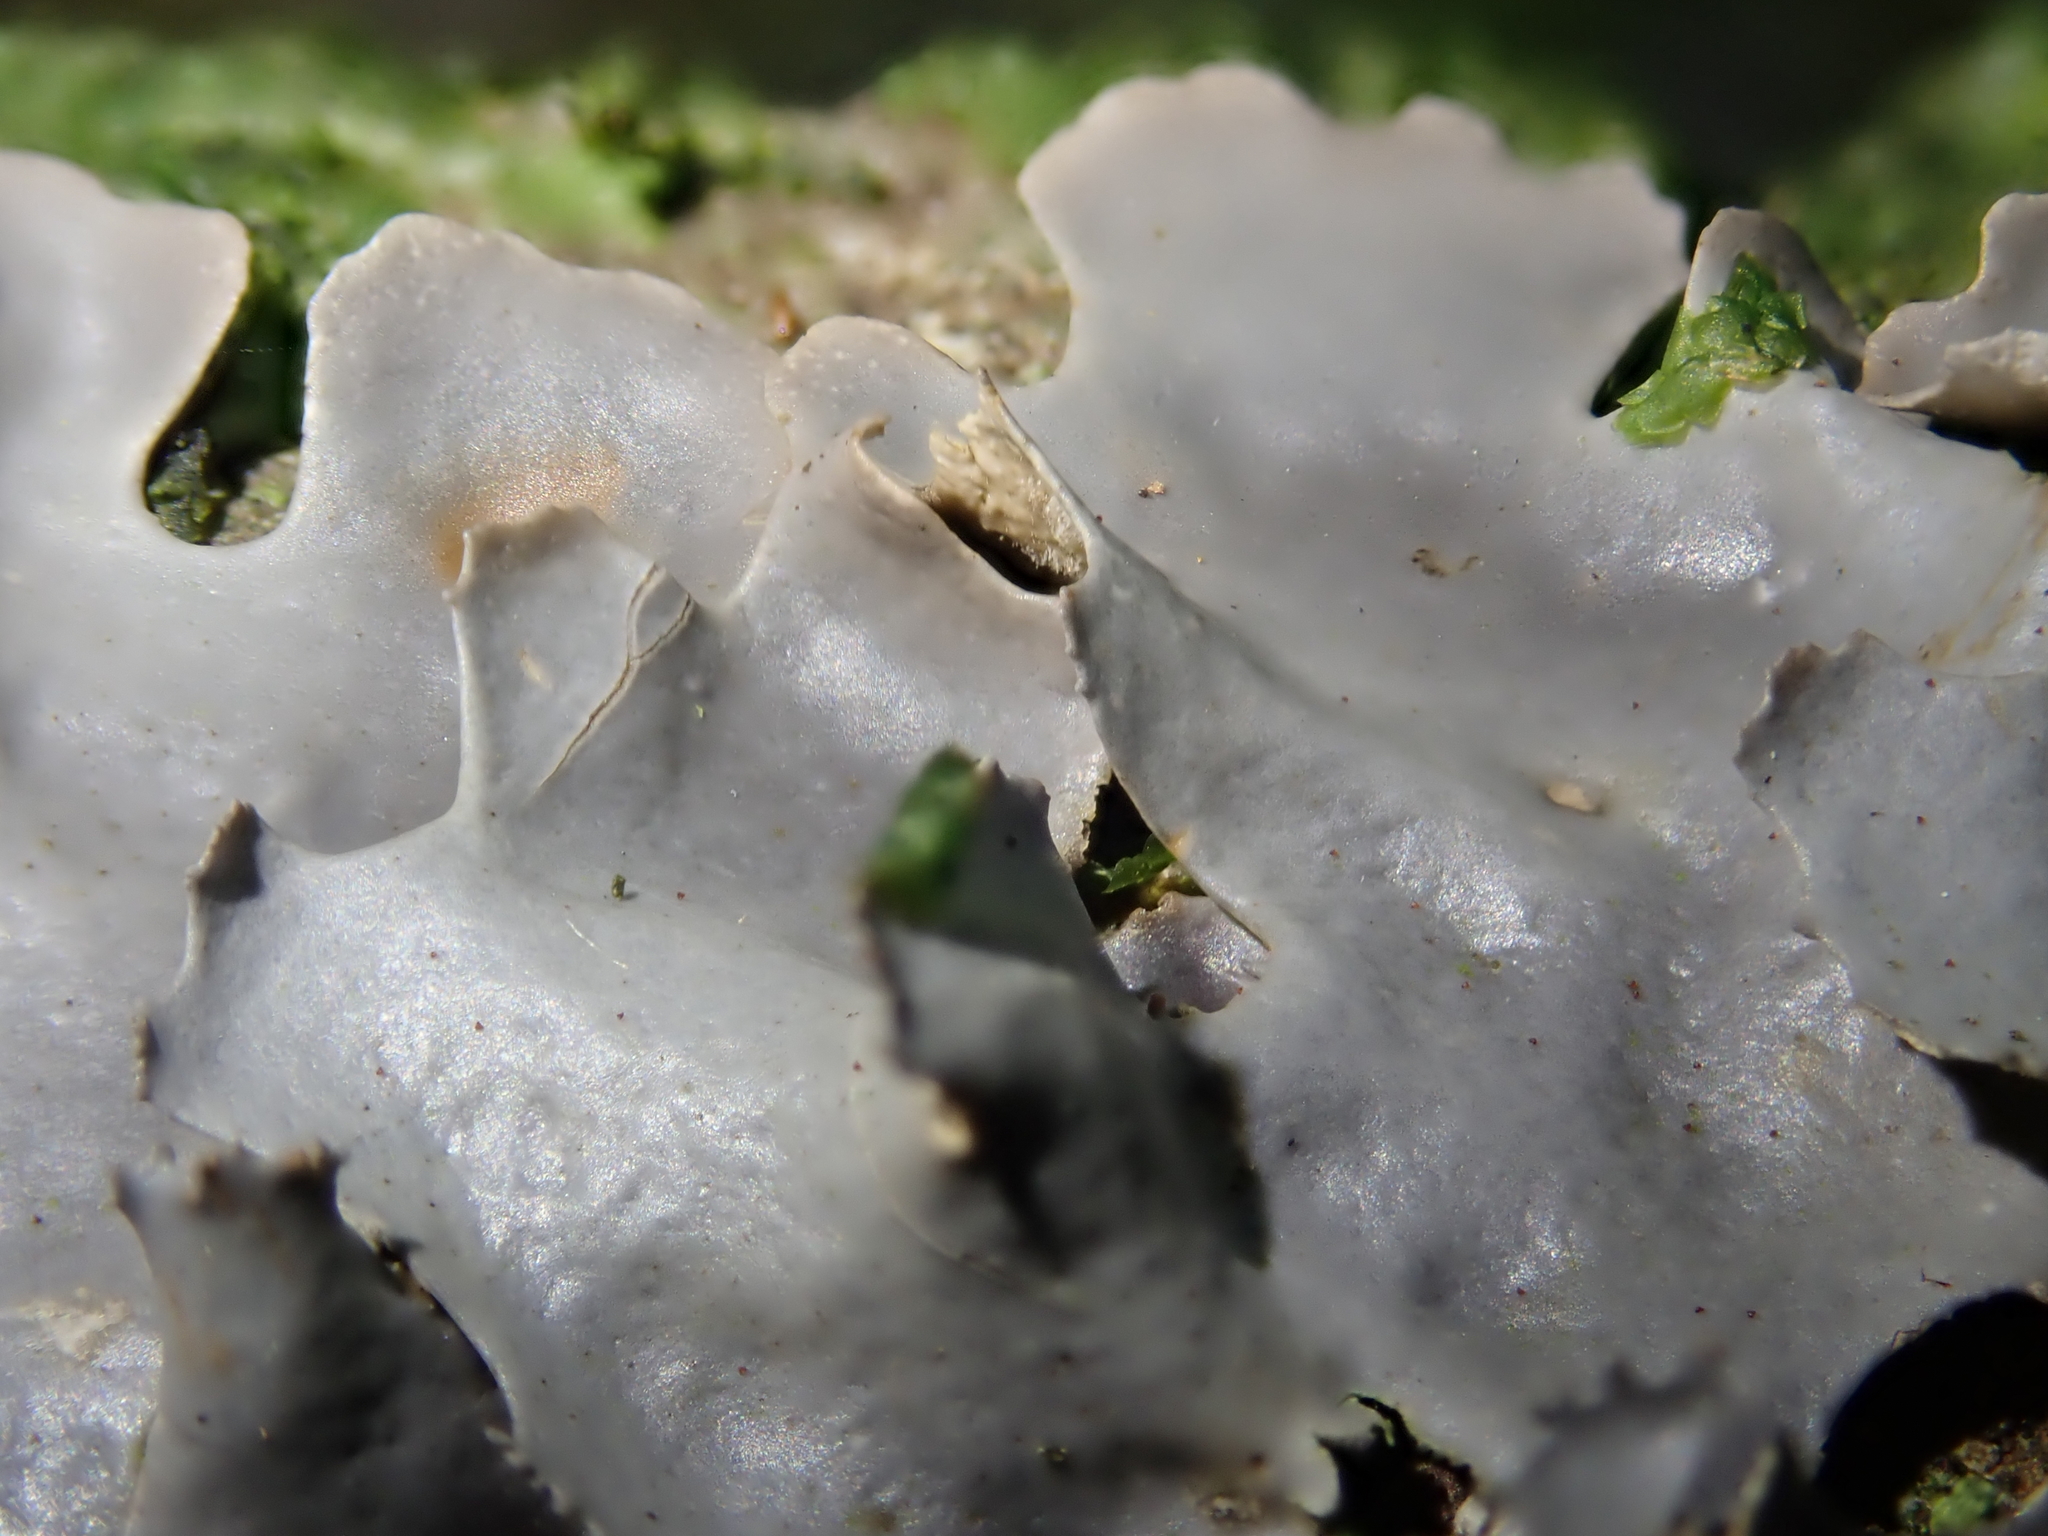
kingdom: Fungi
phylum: Ascomycota
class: Lecanoromycetes
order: Peltigerales
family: Lobariaceae
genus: Pseudocyphellaria
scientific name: Pseudocyphellaria dissimilis
